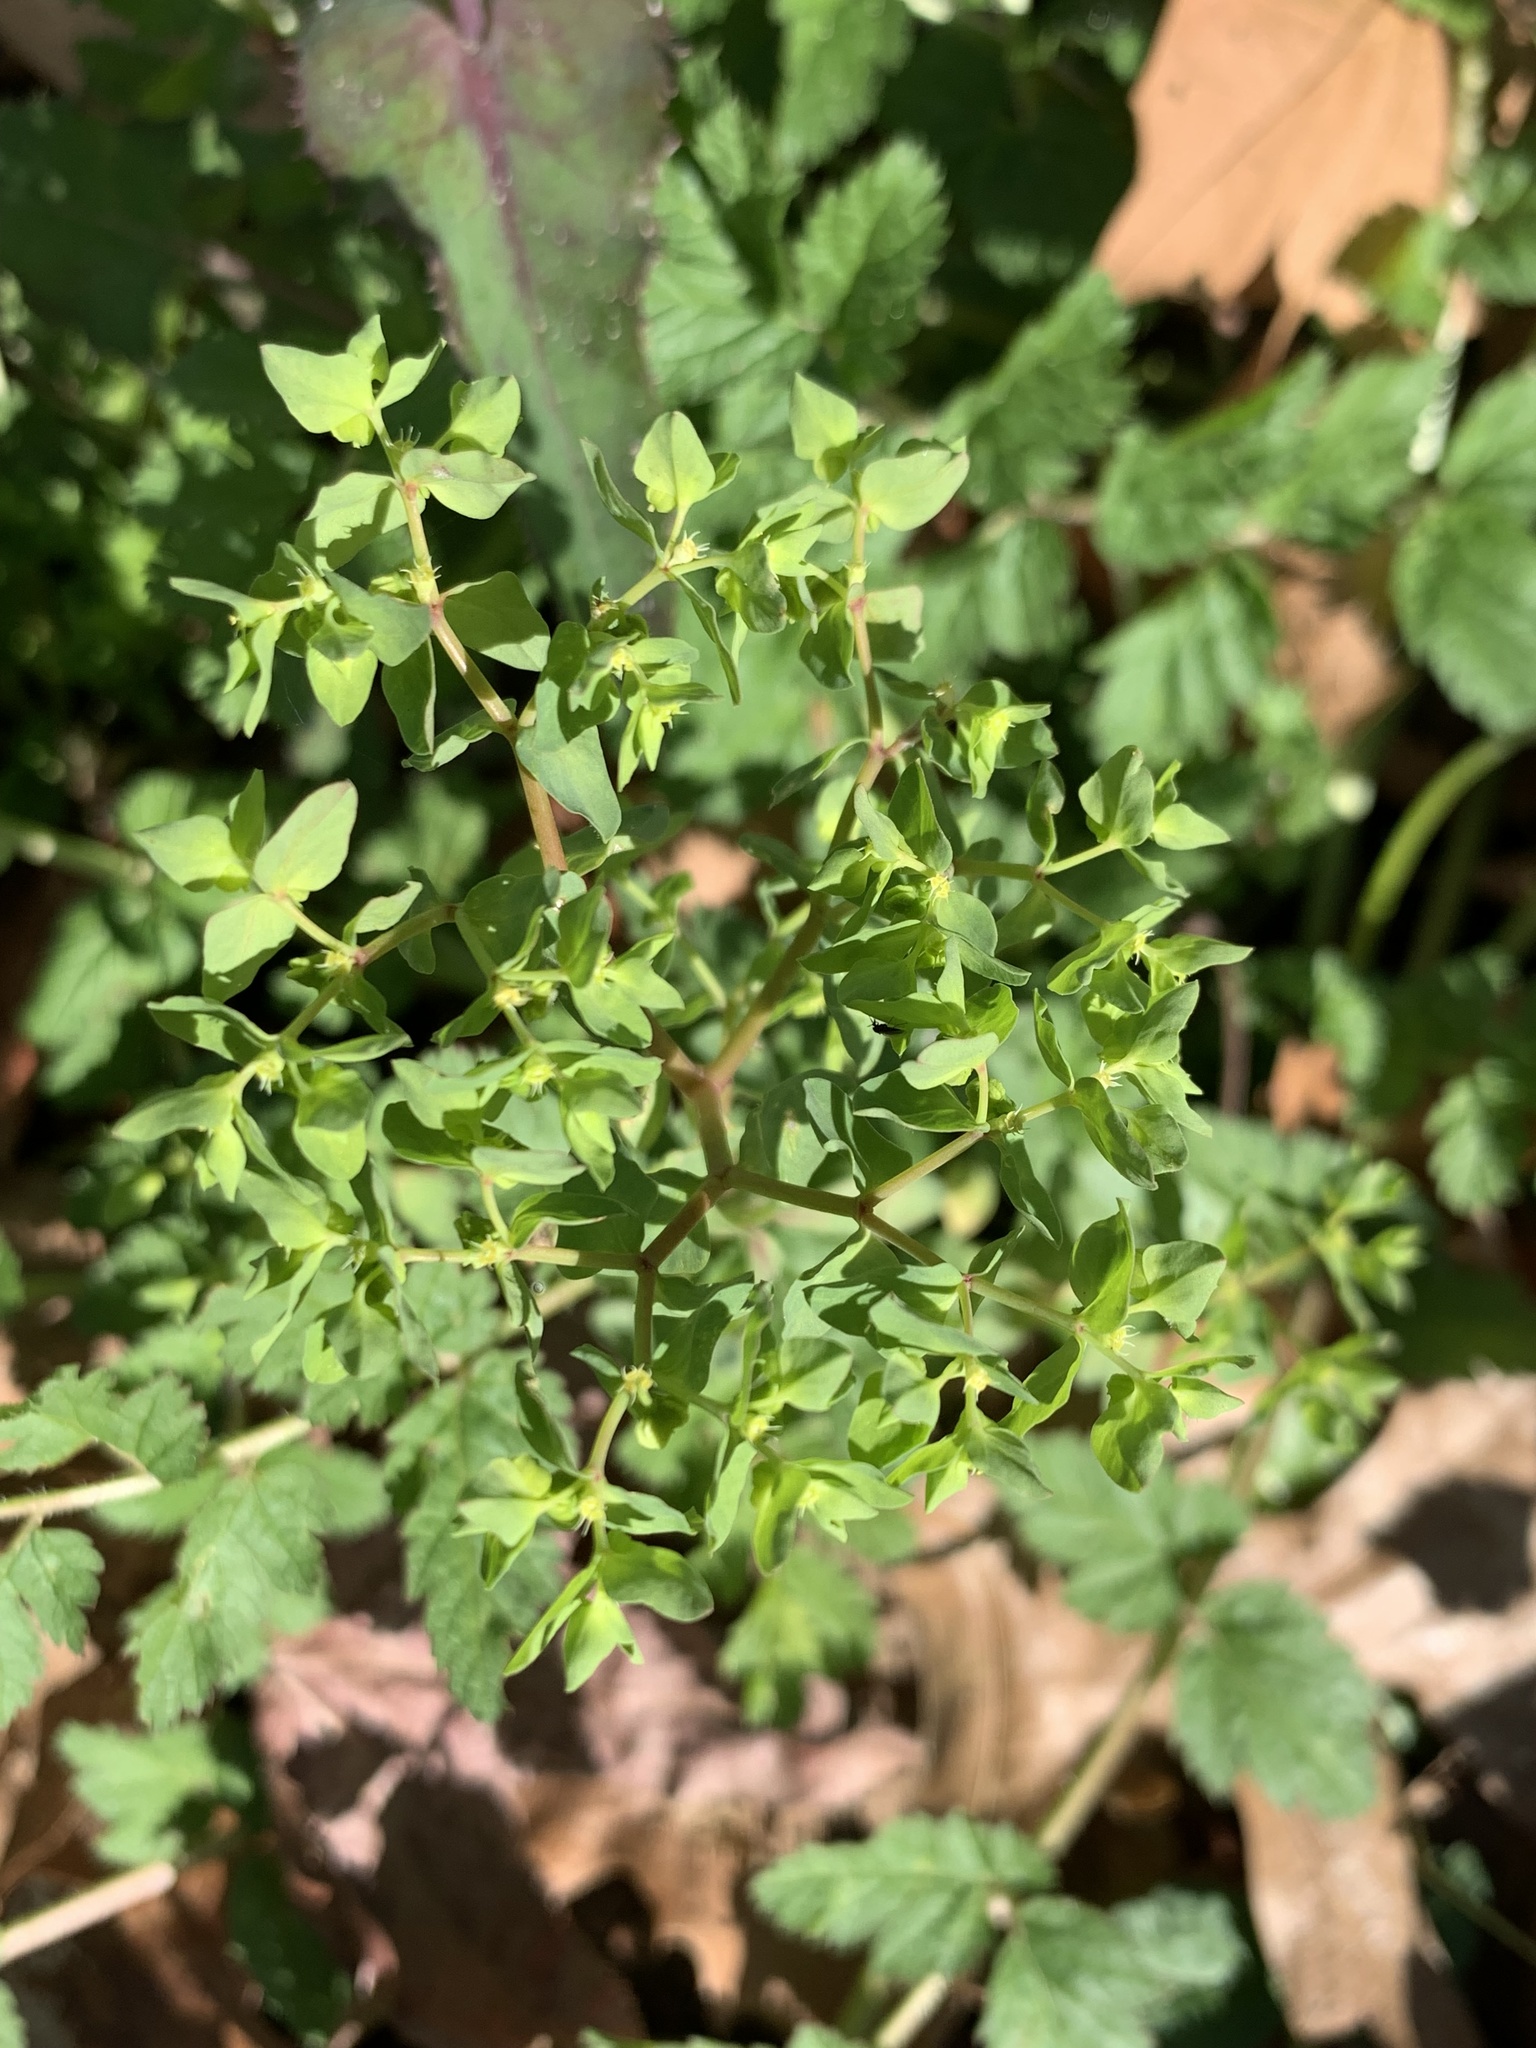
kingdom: Plantae
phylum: Tracheophyta
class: Magnoliopsida
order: Malpighiales
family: Euphorbiaceae
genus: Euphorbia
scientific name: Euphorbia peplus
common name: Petty spurge
